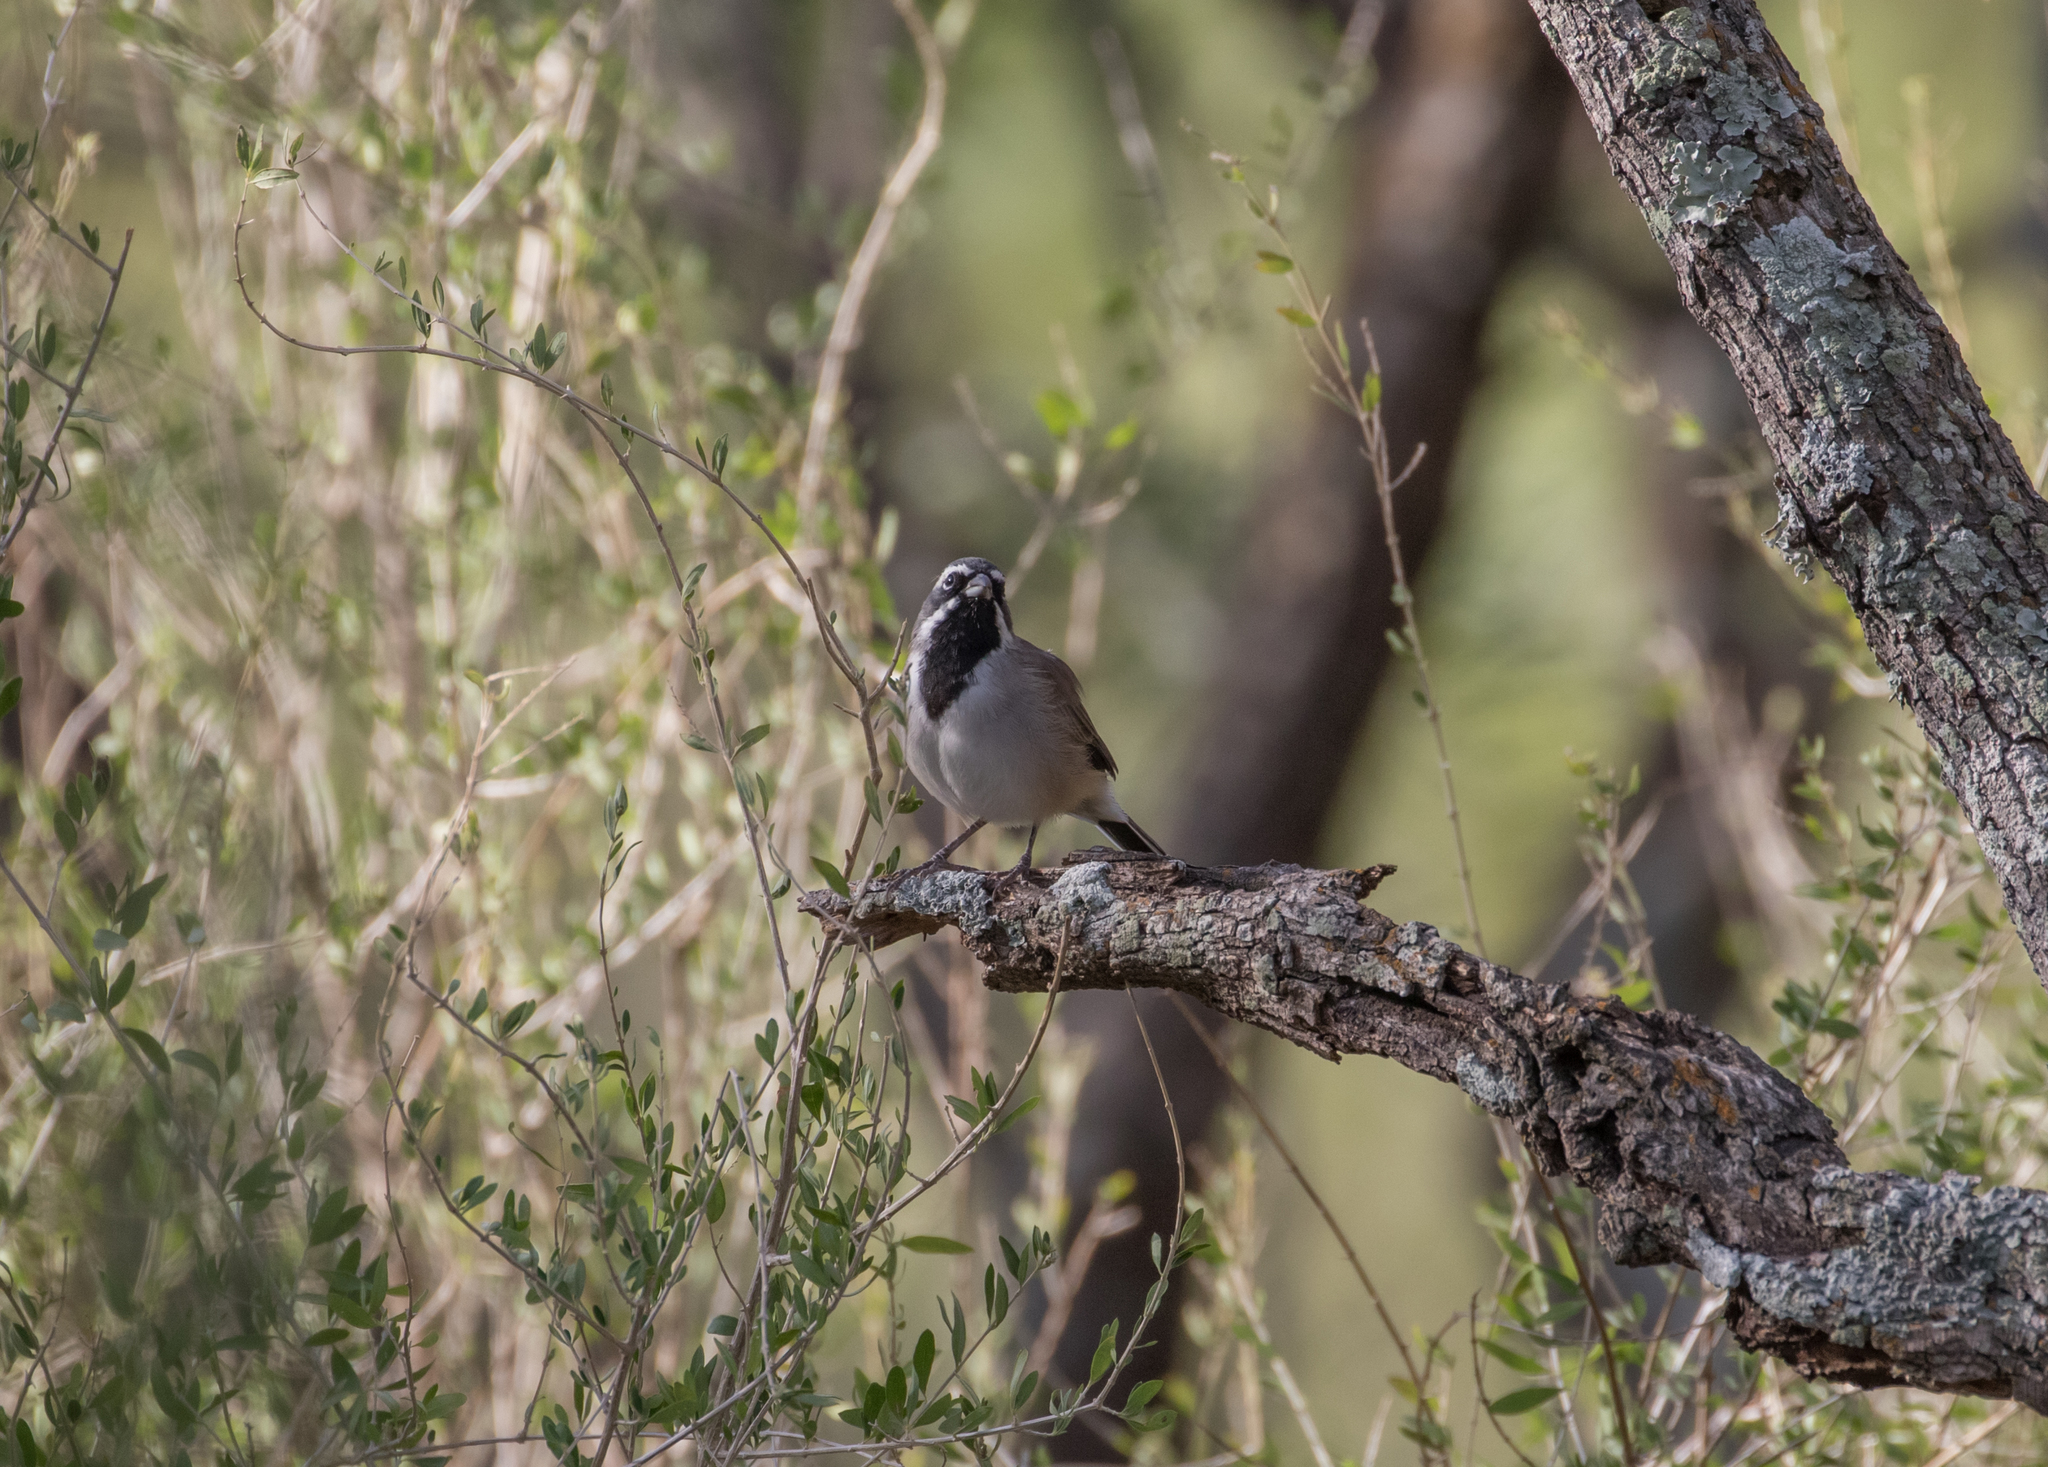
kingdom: Animalia
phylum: Chordata
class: Aves
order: Passeriformes
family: Passerellidae
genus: Amphispiza
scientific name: Amphispiza bilineata
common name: Black-throated sparrow
